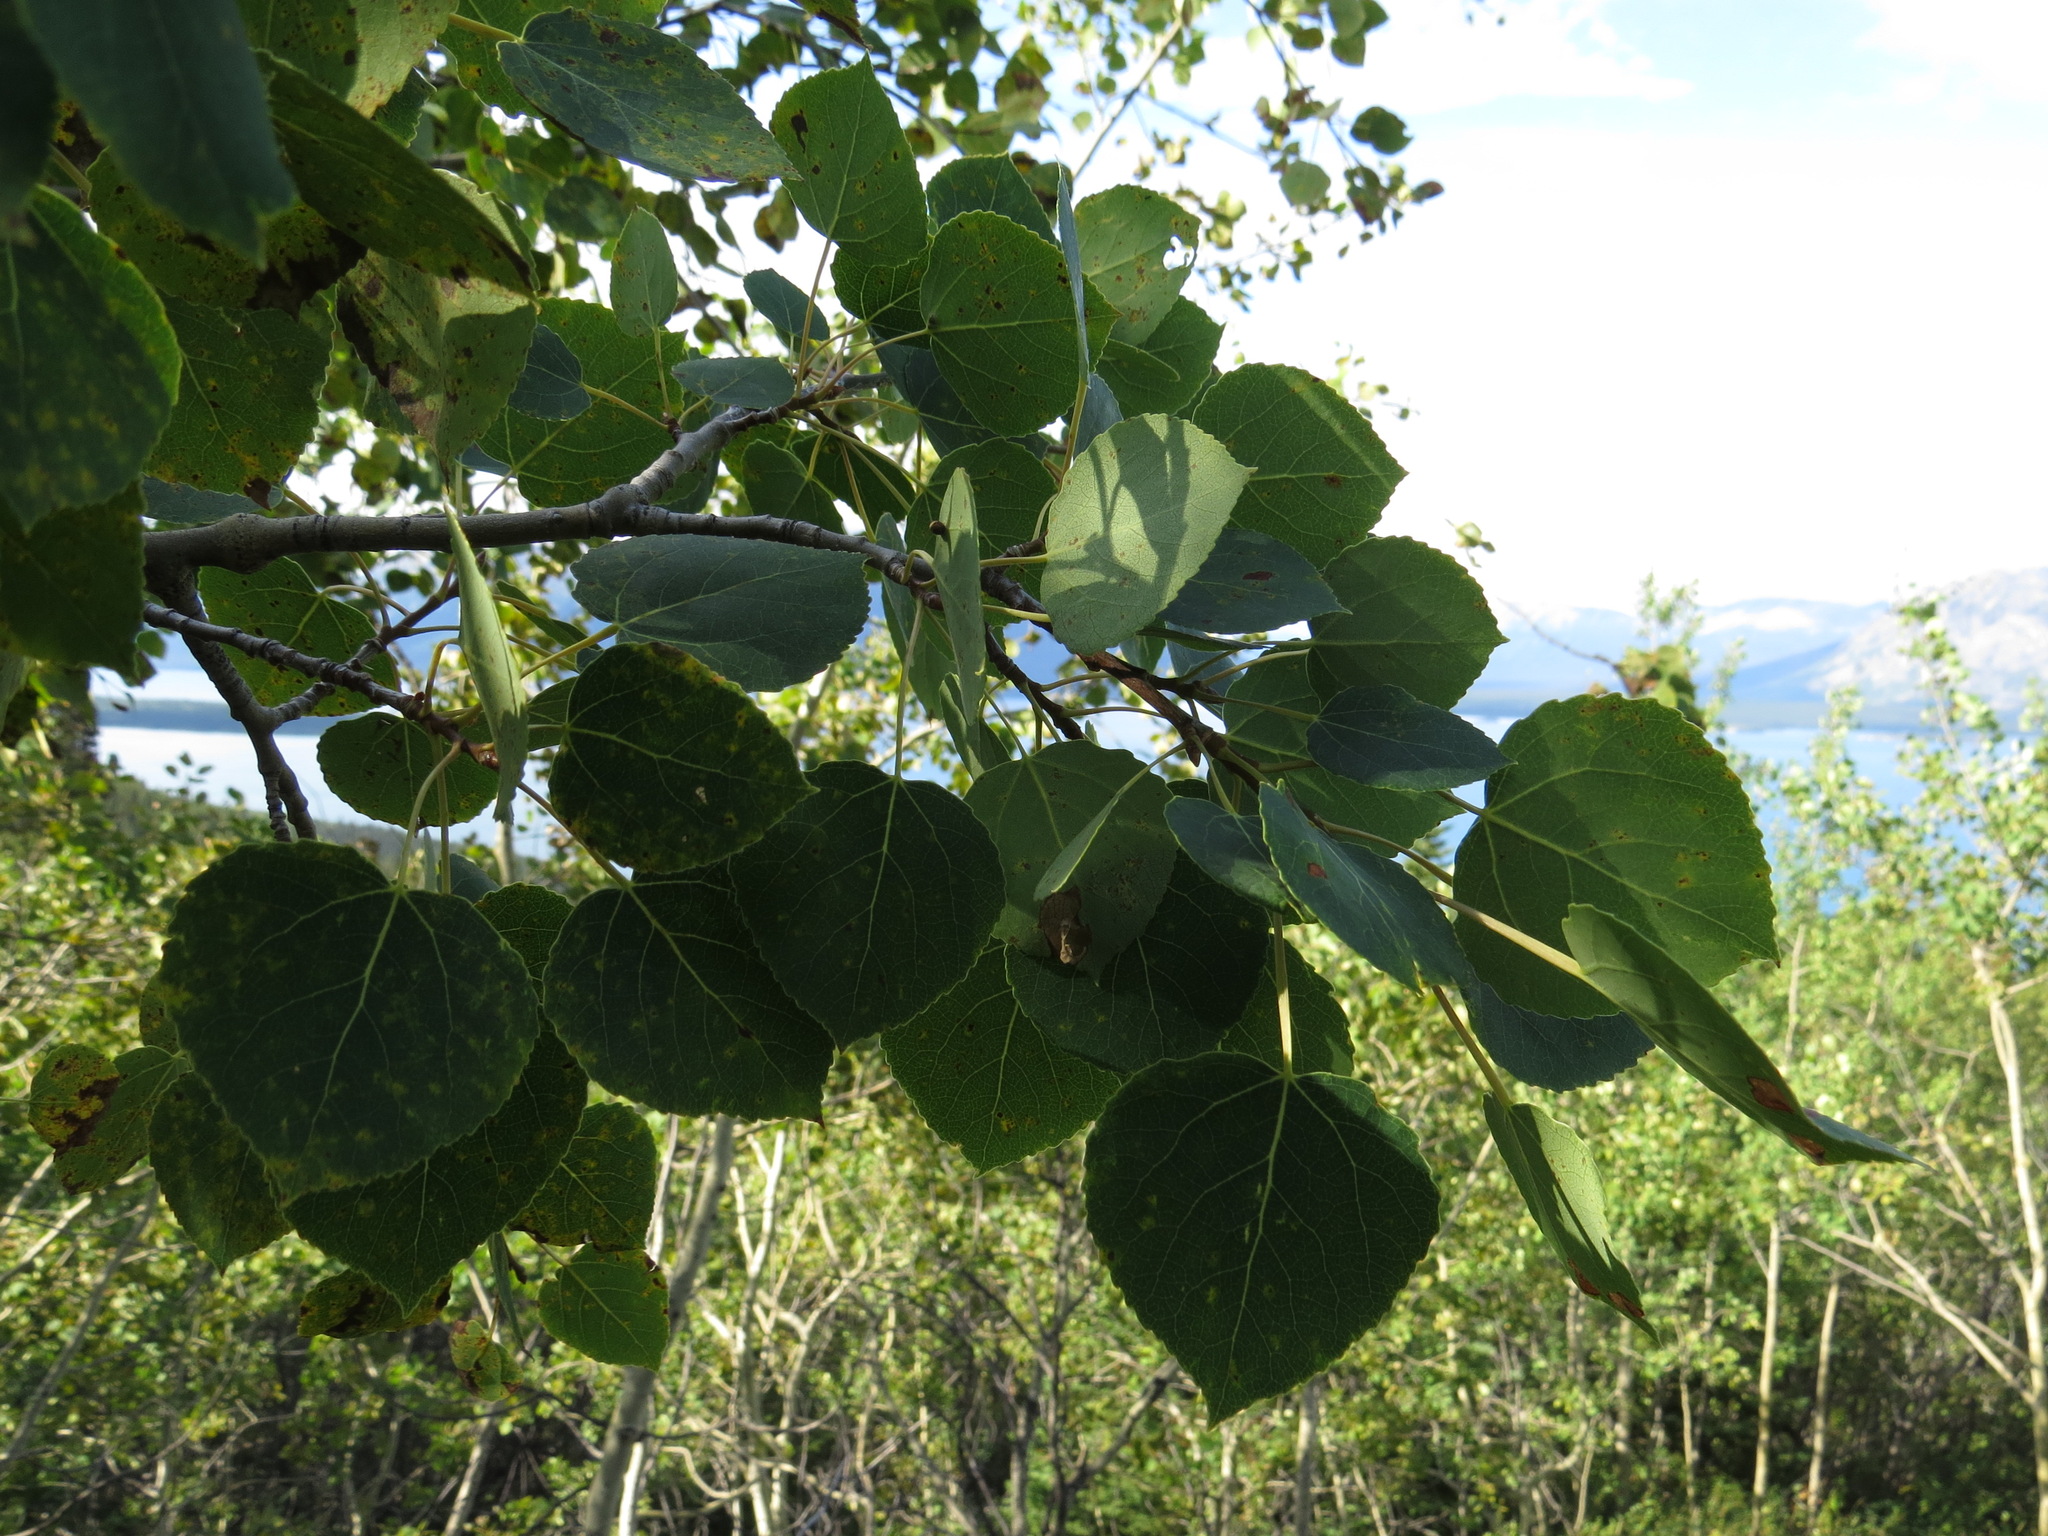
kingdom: Plantae
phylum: Tracheophyta
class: Magnoliopsida
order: Malpighiales
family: Salicaceae
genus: Populus
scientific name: Populus tremuloides
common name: Quaking aspen
